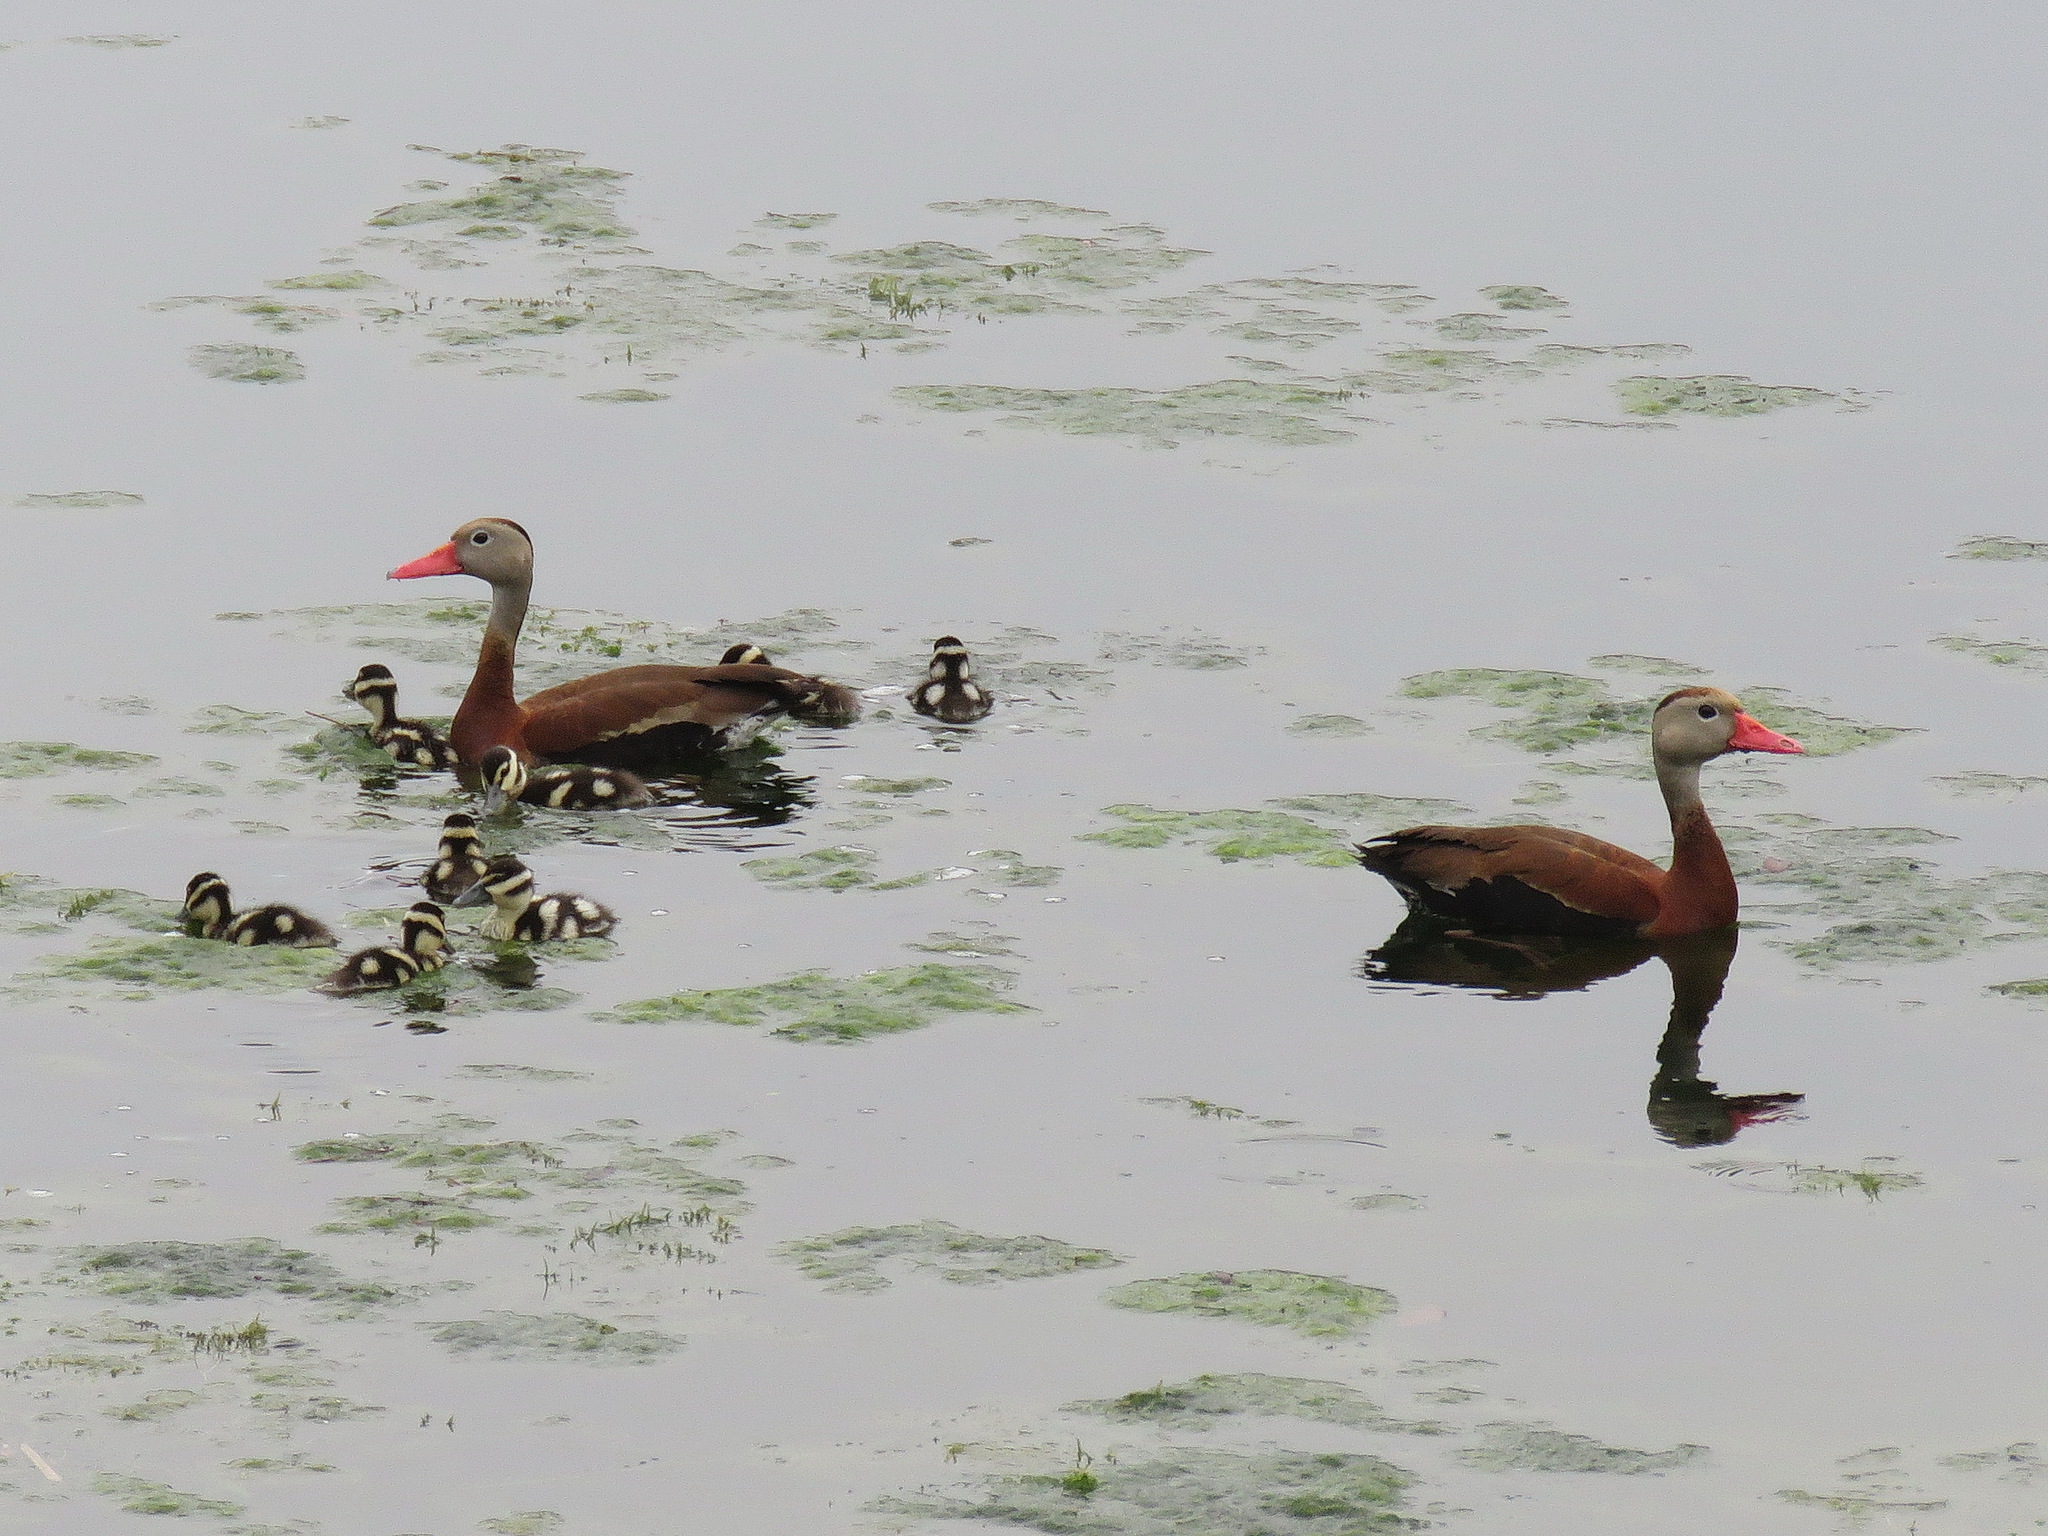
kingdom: Animalia
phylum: Chordata
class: Aves
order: Anseriformes
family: Anatidae
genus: Dendrocygna
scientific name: Dendrocygna autumnalis
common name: Black-bellied whistling duck
